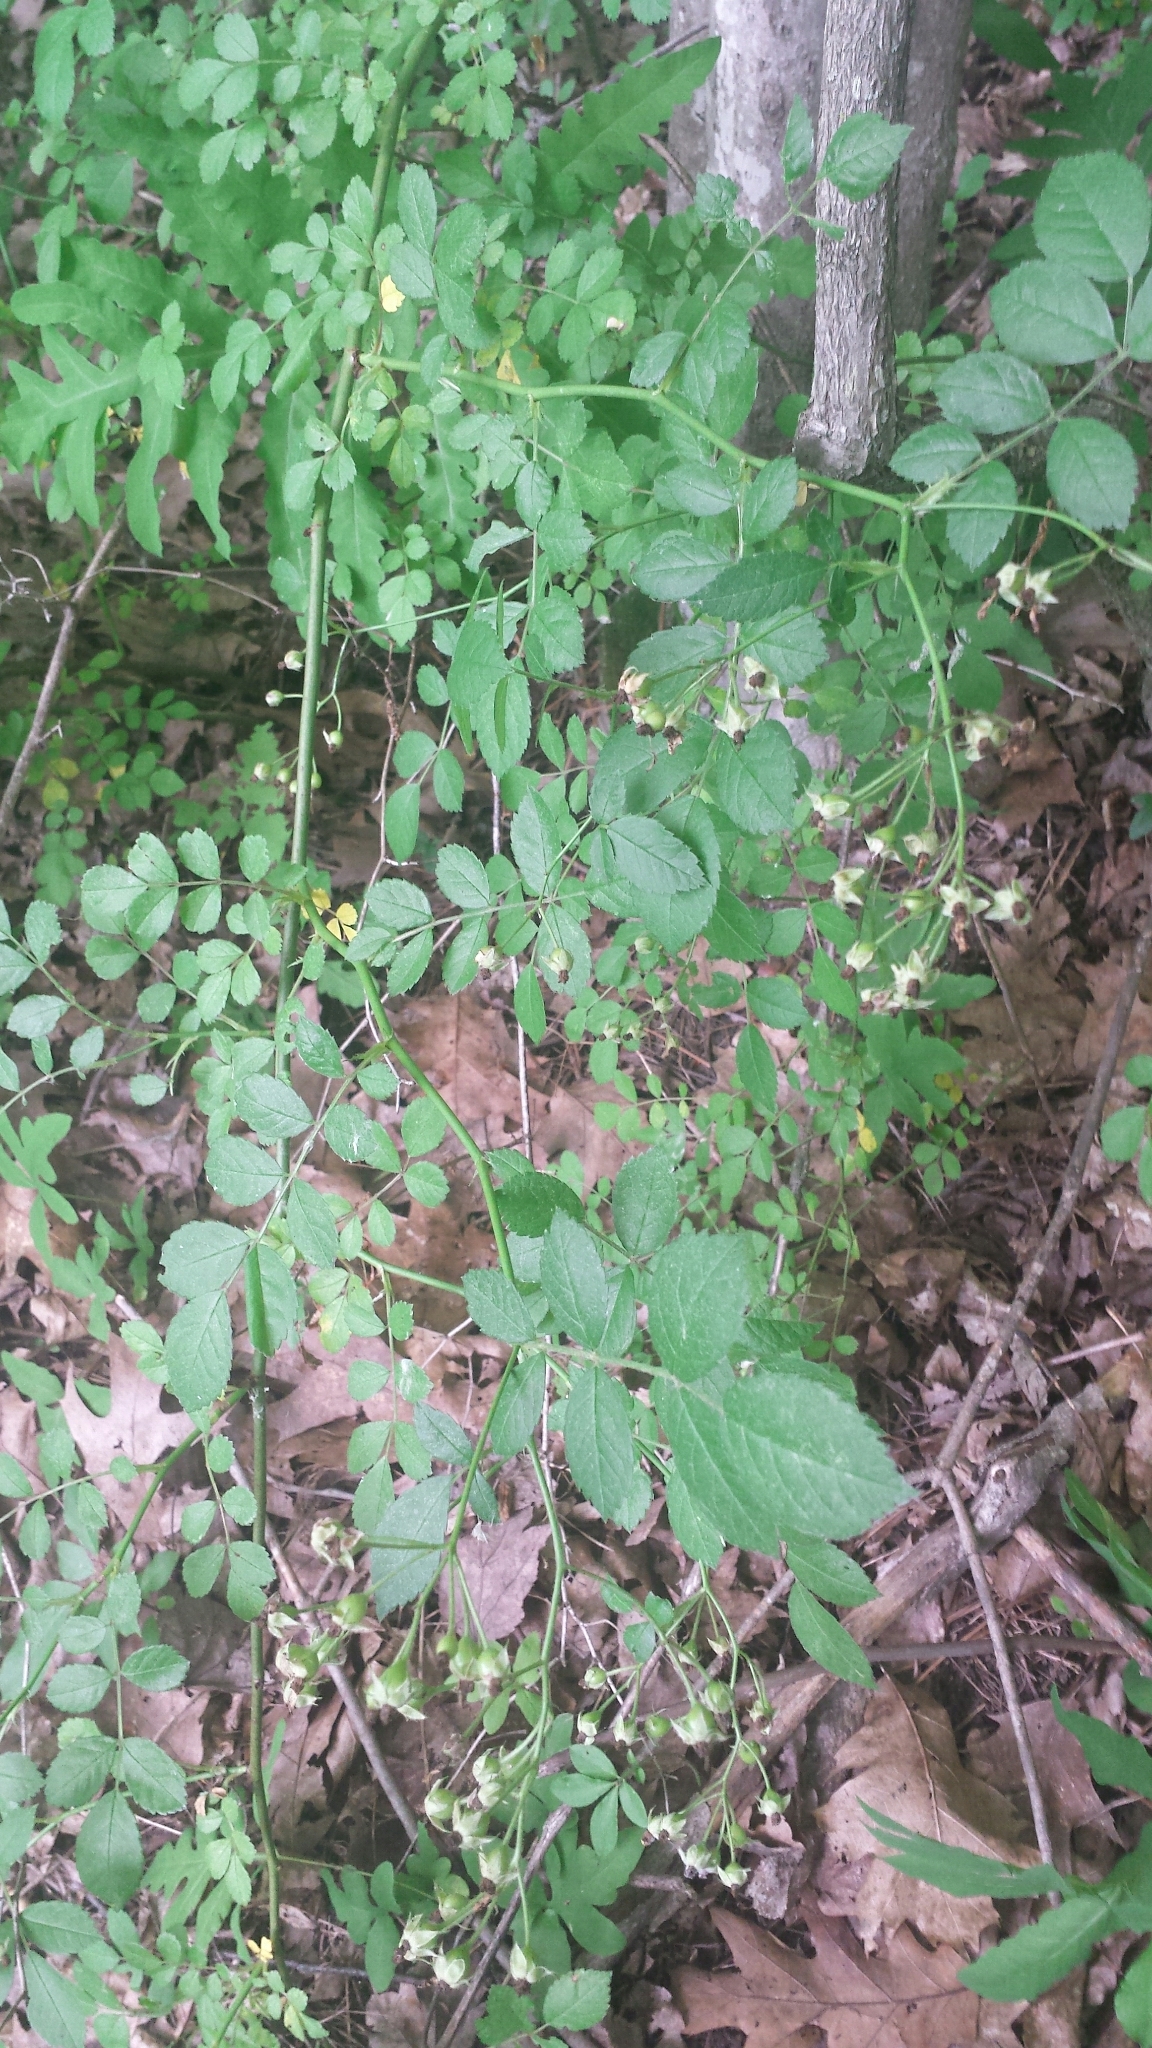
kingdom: Plantae
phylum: Tracheophyta
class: Magnoliopsida
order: Rosales
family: Rosaceae
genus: Rosa
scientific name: Rosa multiflora
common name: Multiflora rose
